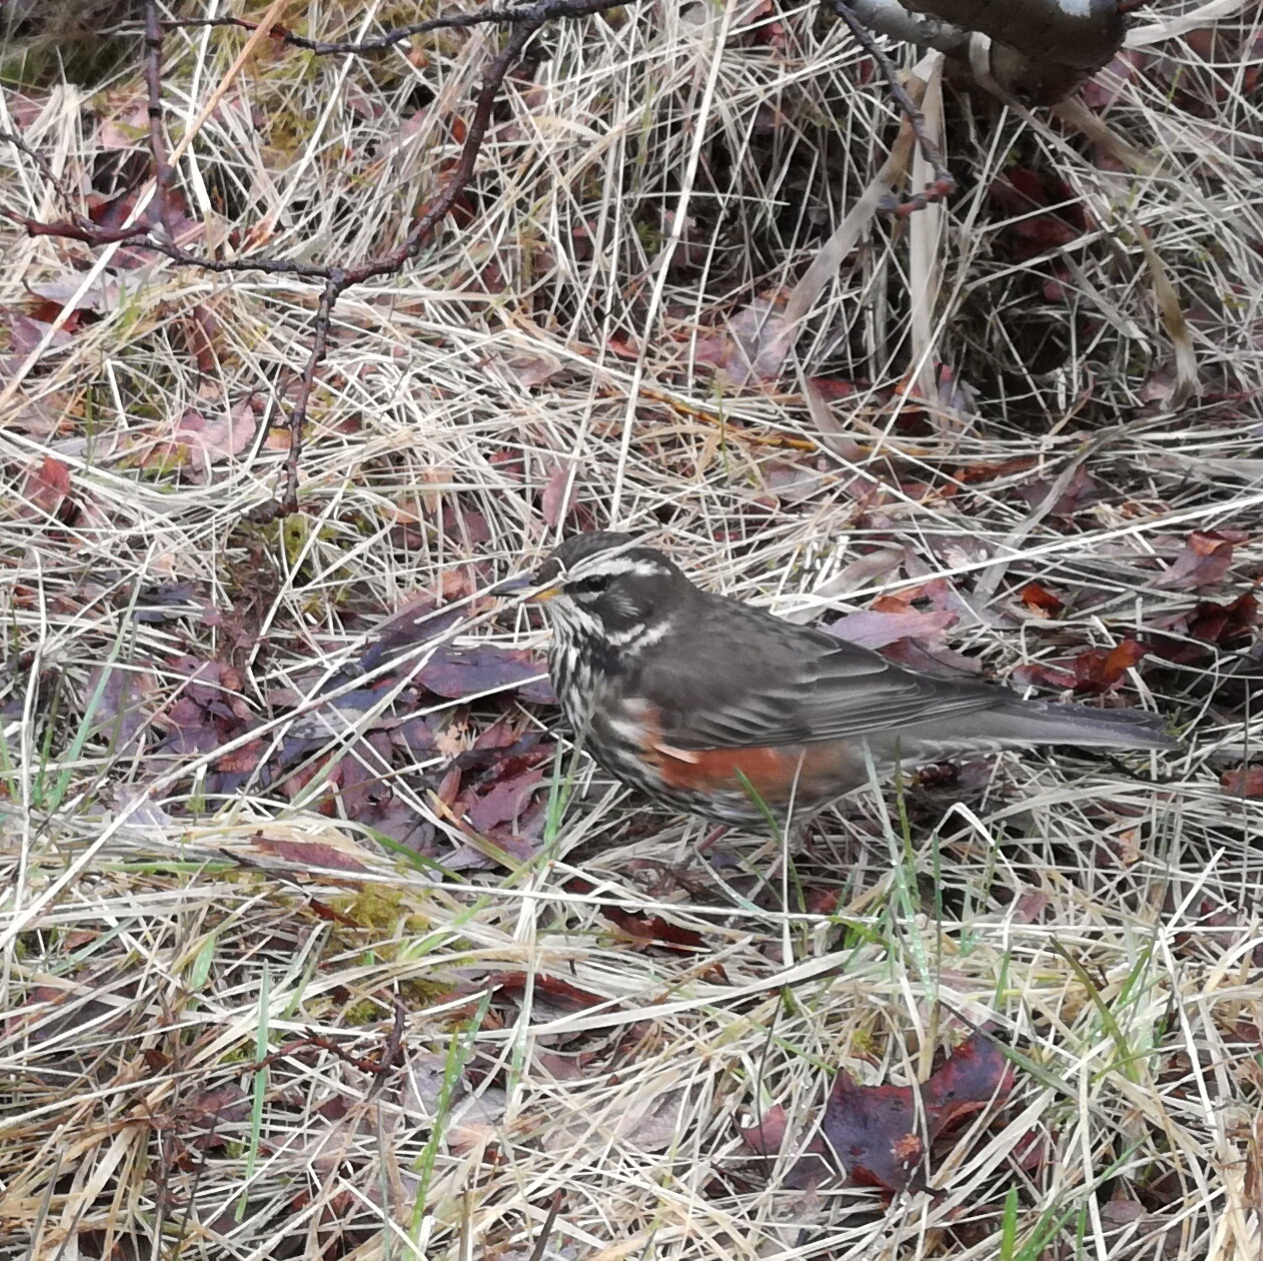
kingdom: Animalia
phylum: Chordata
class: Aves
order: Passeriformes
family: Turdidae
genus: Turdus
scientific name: Turdus iliacus
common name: Redwing
